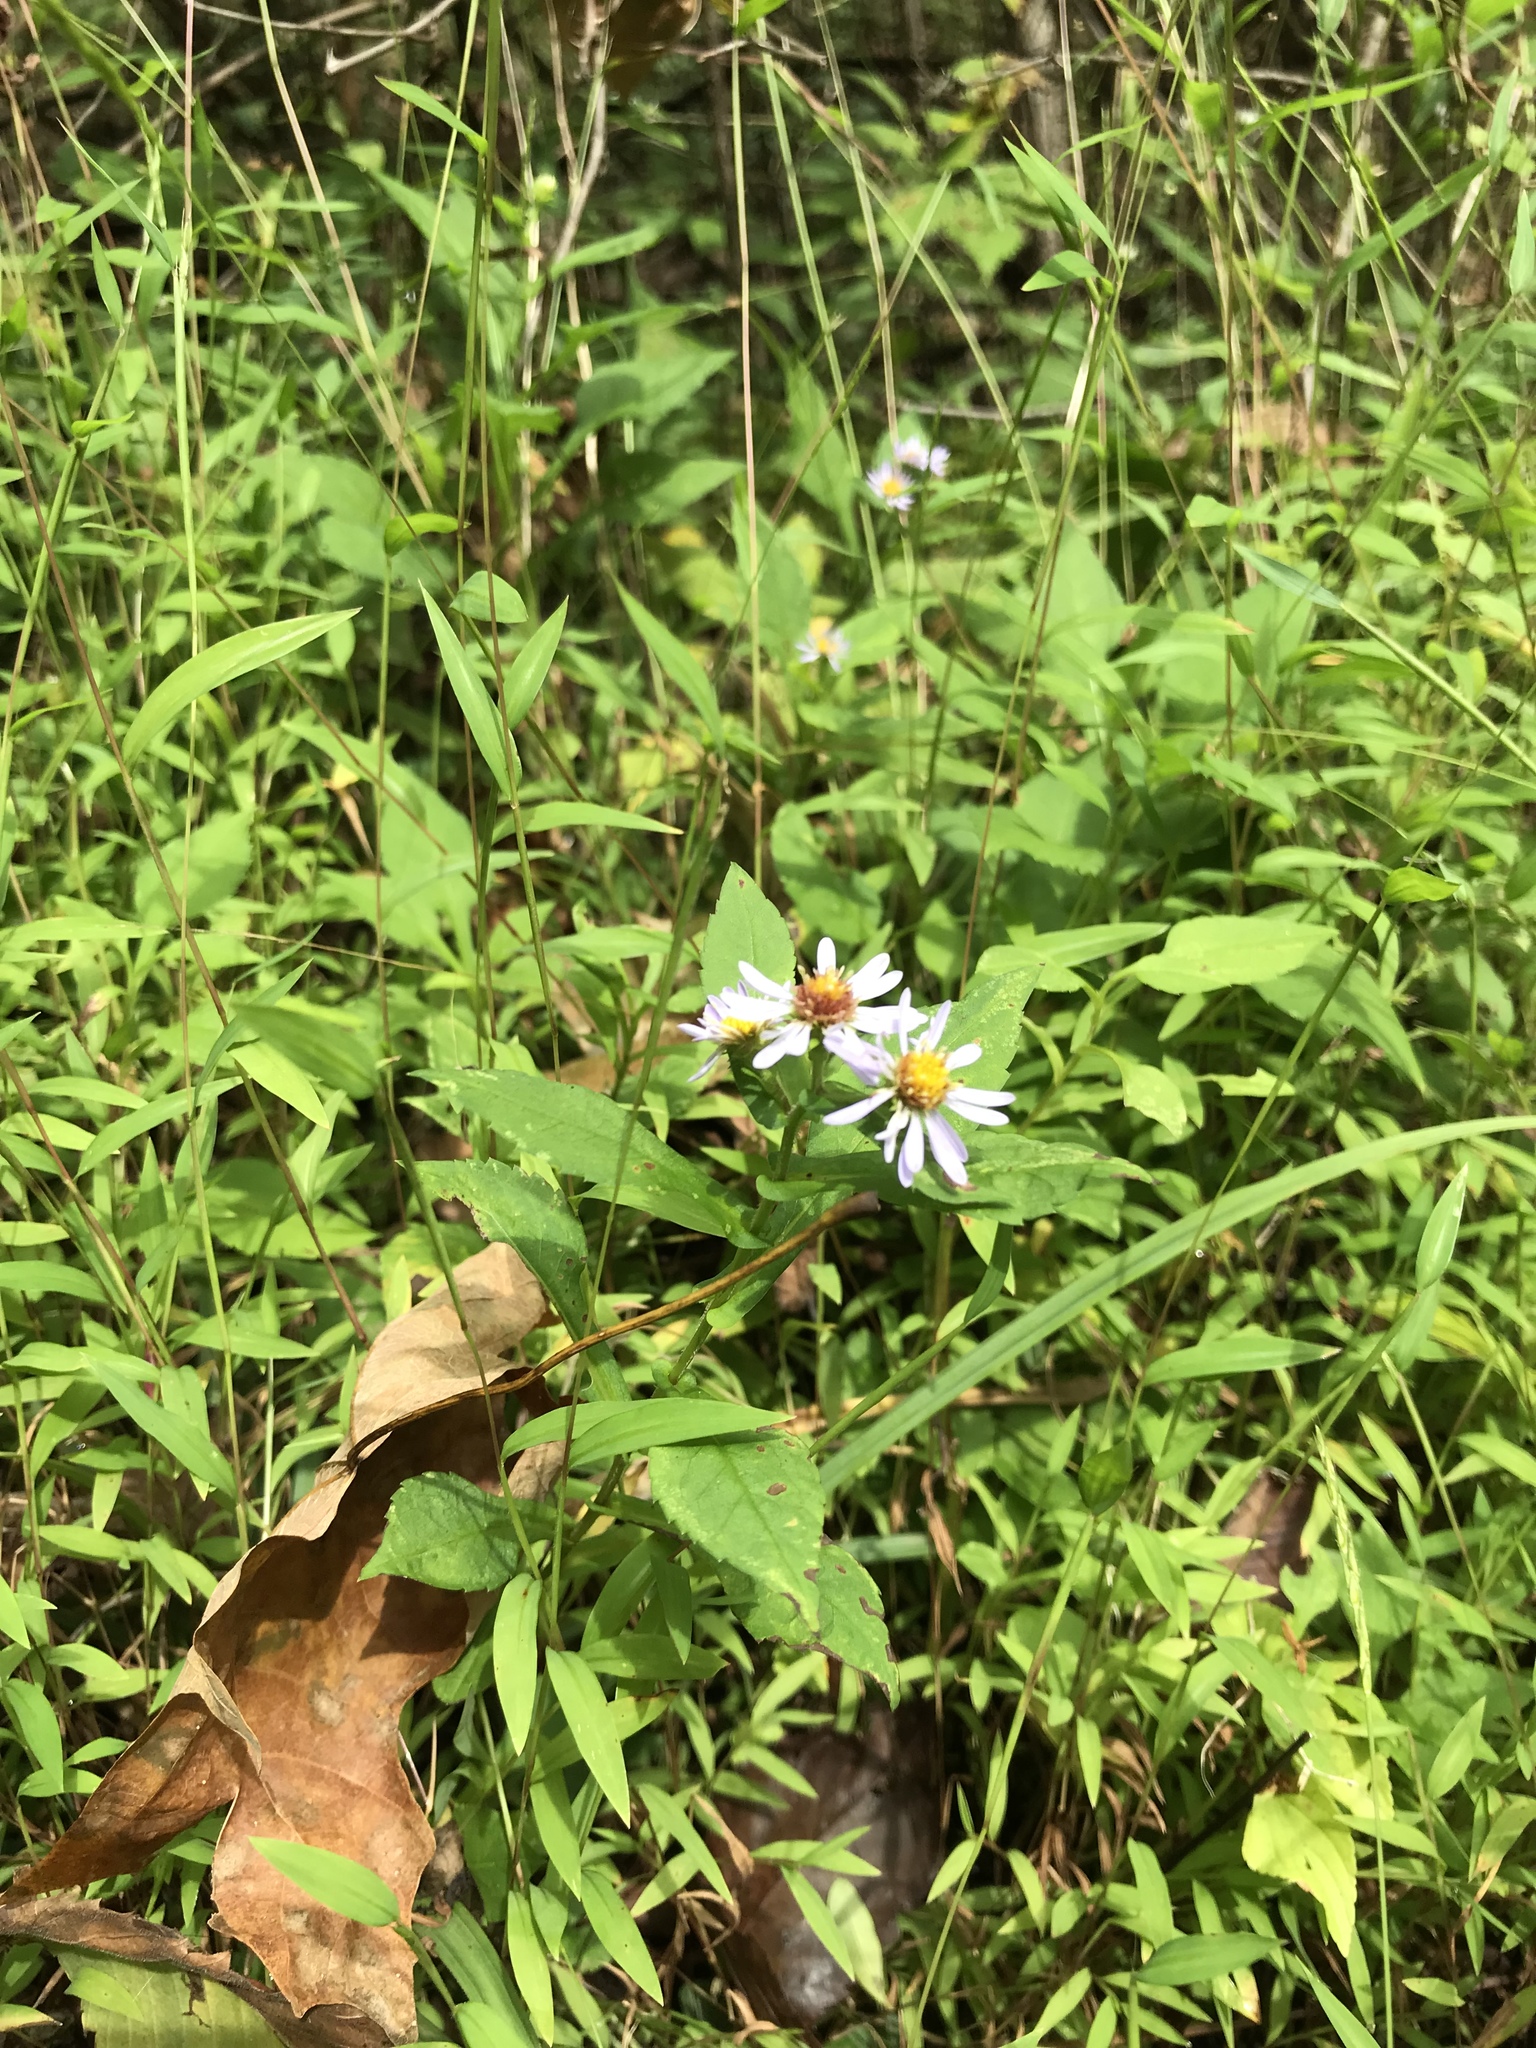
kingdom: Plantae
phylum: Tracheophyta
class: Magnoliopsida
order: Asterales
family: Asteraceae
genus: Symphyotrichum
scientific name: Symphyotrichum prenanthoides
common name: Crooked-stem aster
